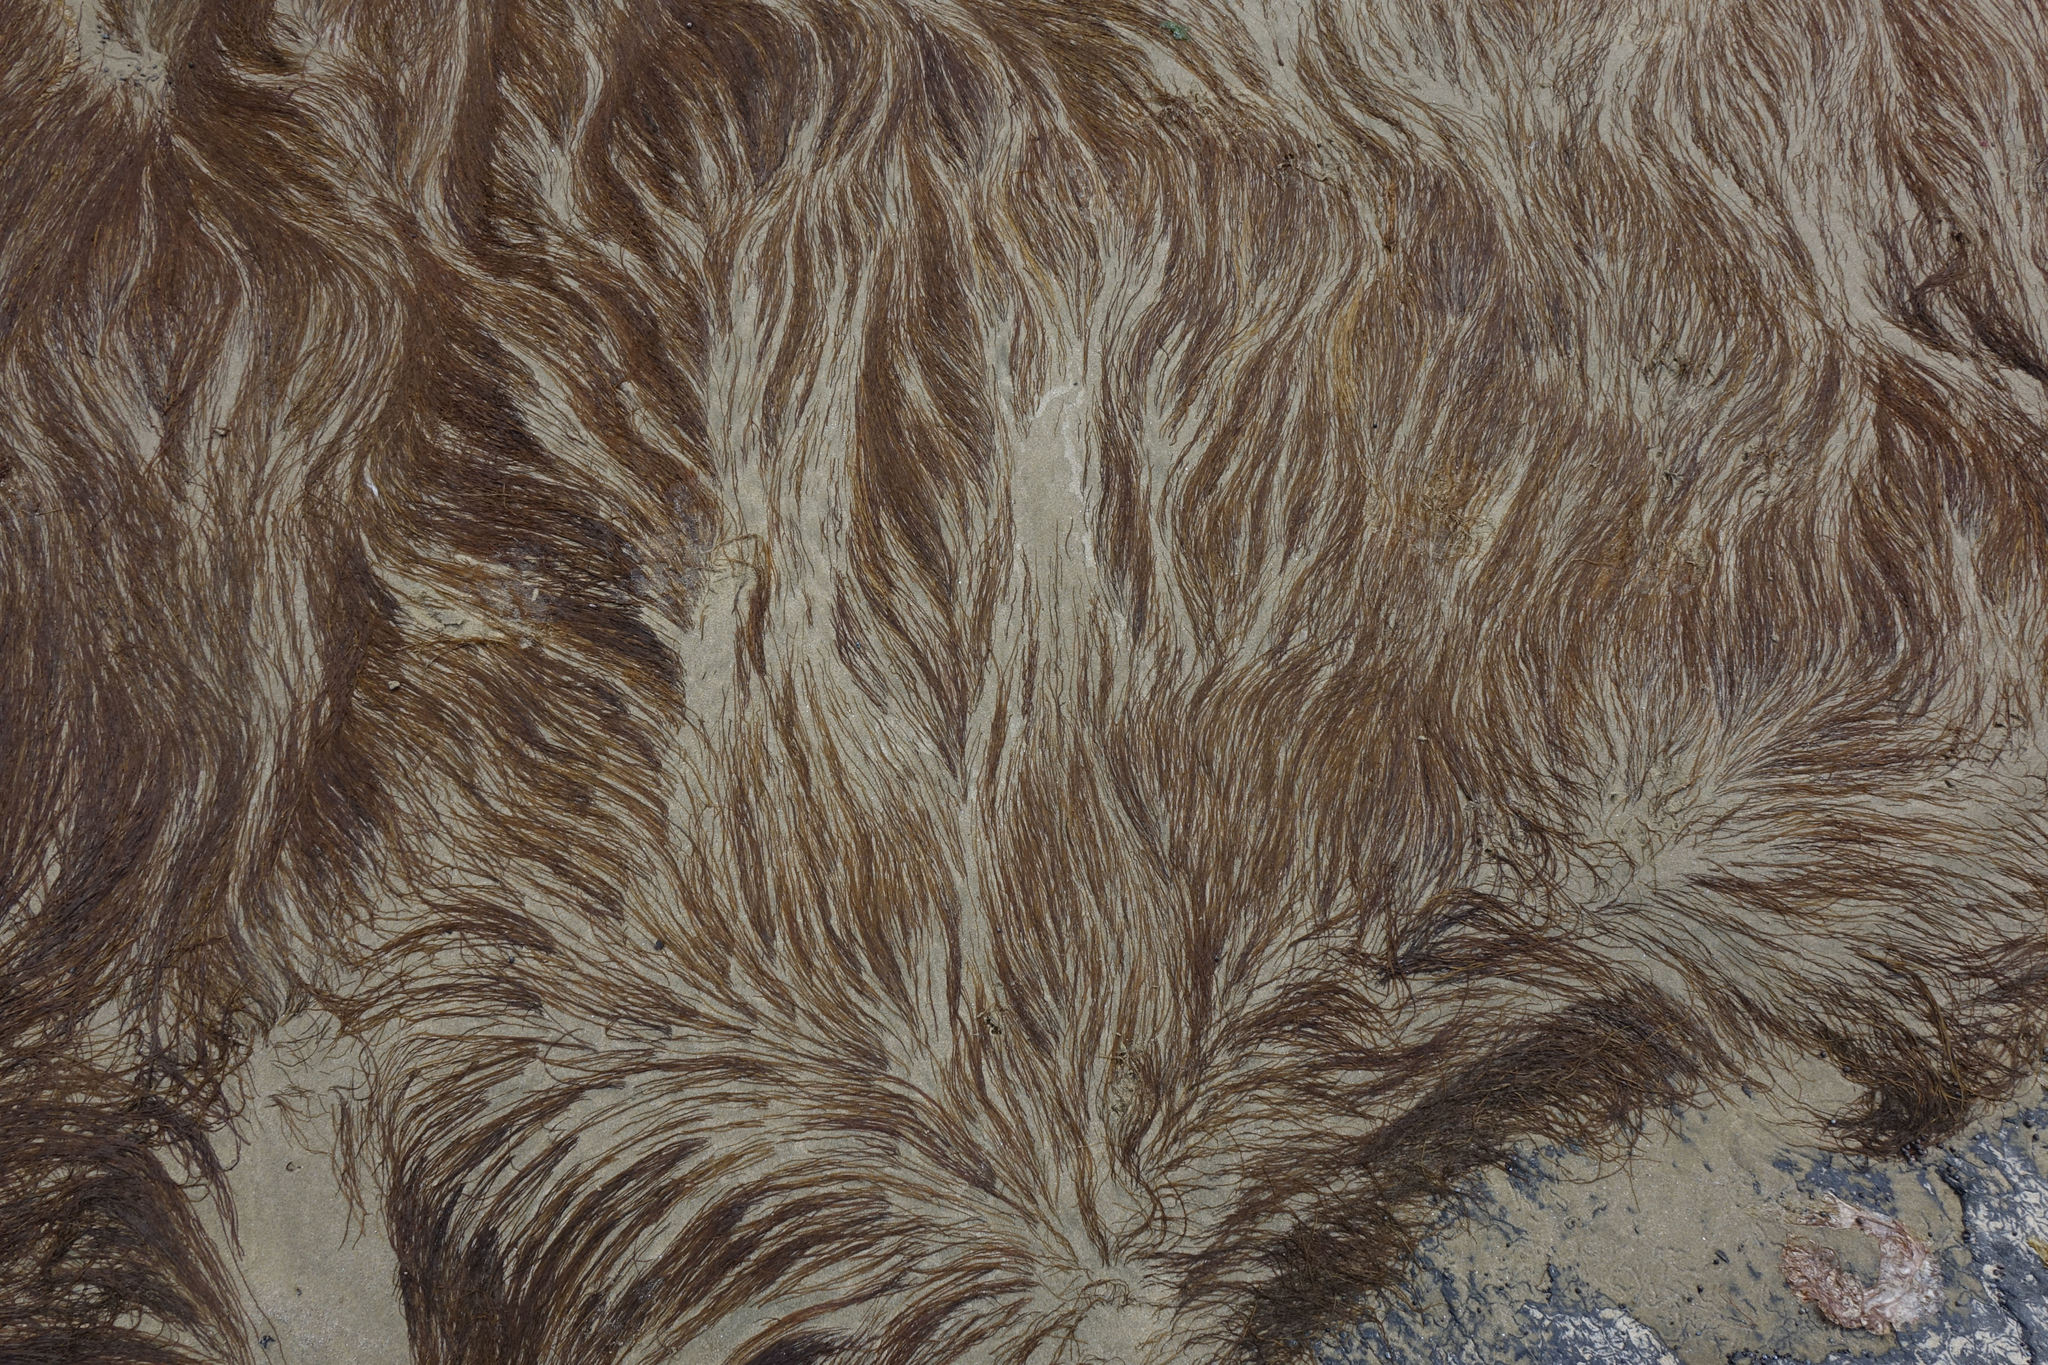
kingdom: Plantae
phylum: Rhodophyta
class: Florideophyceae
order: Gracilariales
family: Gracilariaceae
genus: Gracilaria
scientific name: Gracilaria chilensis
